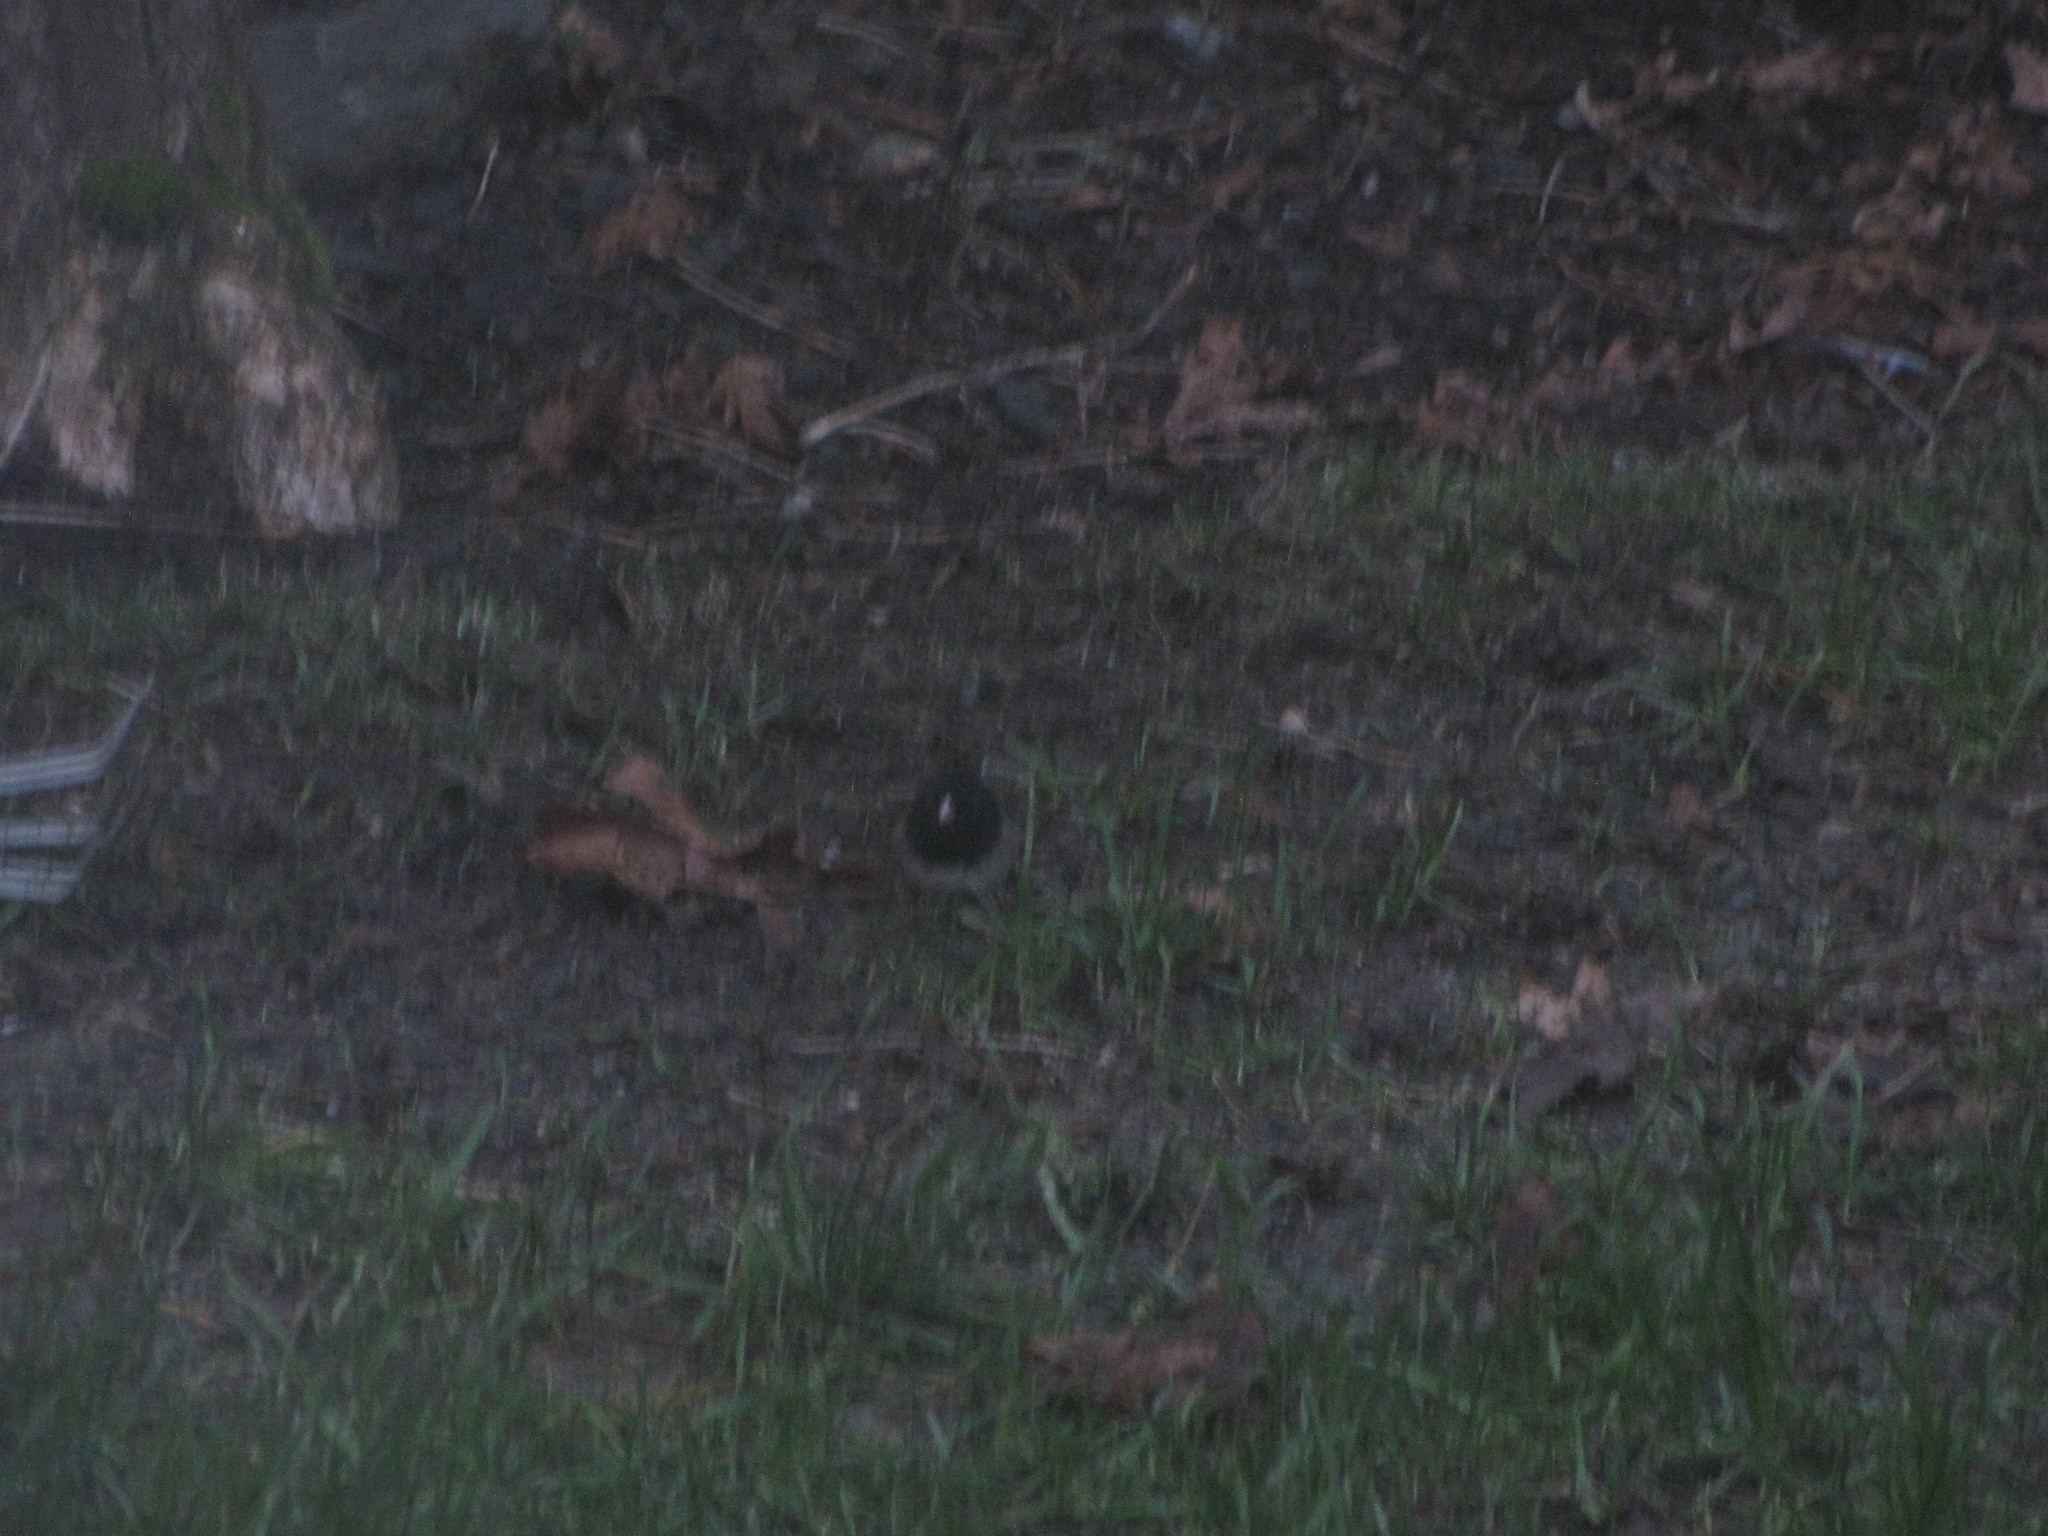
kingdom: Animalia
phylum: Chordata
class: Aves
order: Passeriformes
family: Passerellidae
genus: Junco
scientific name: Junco hyemalis
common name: Dark-eyed junco
